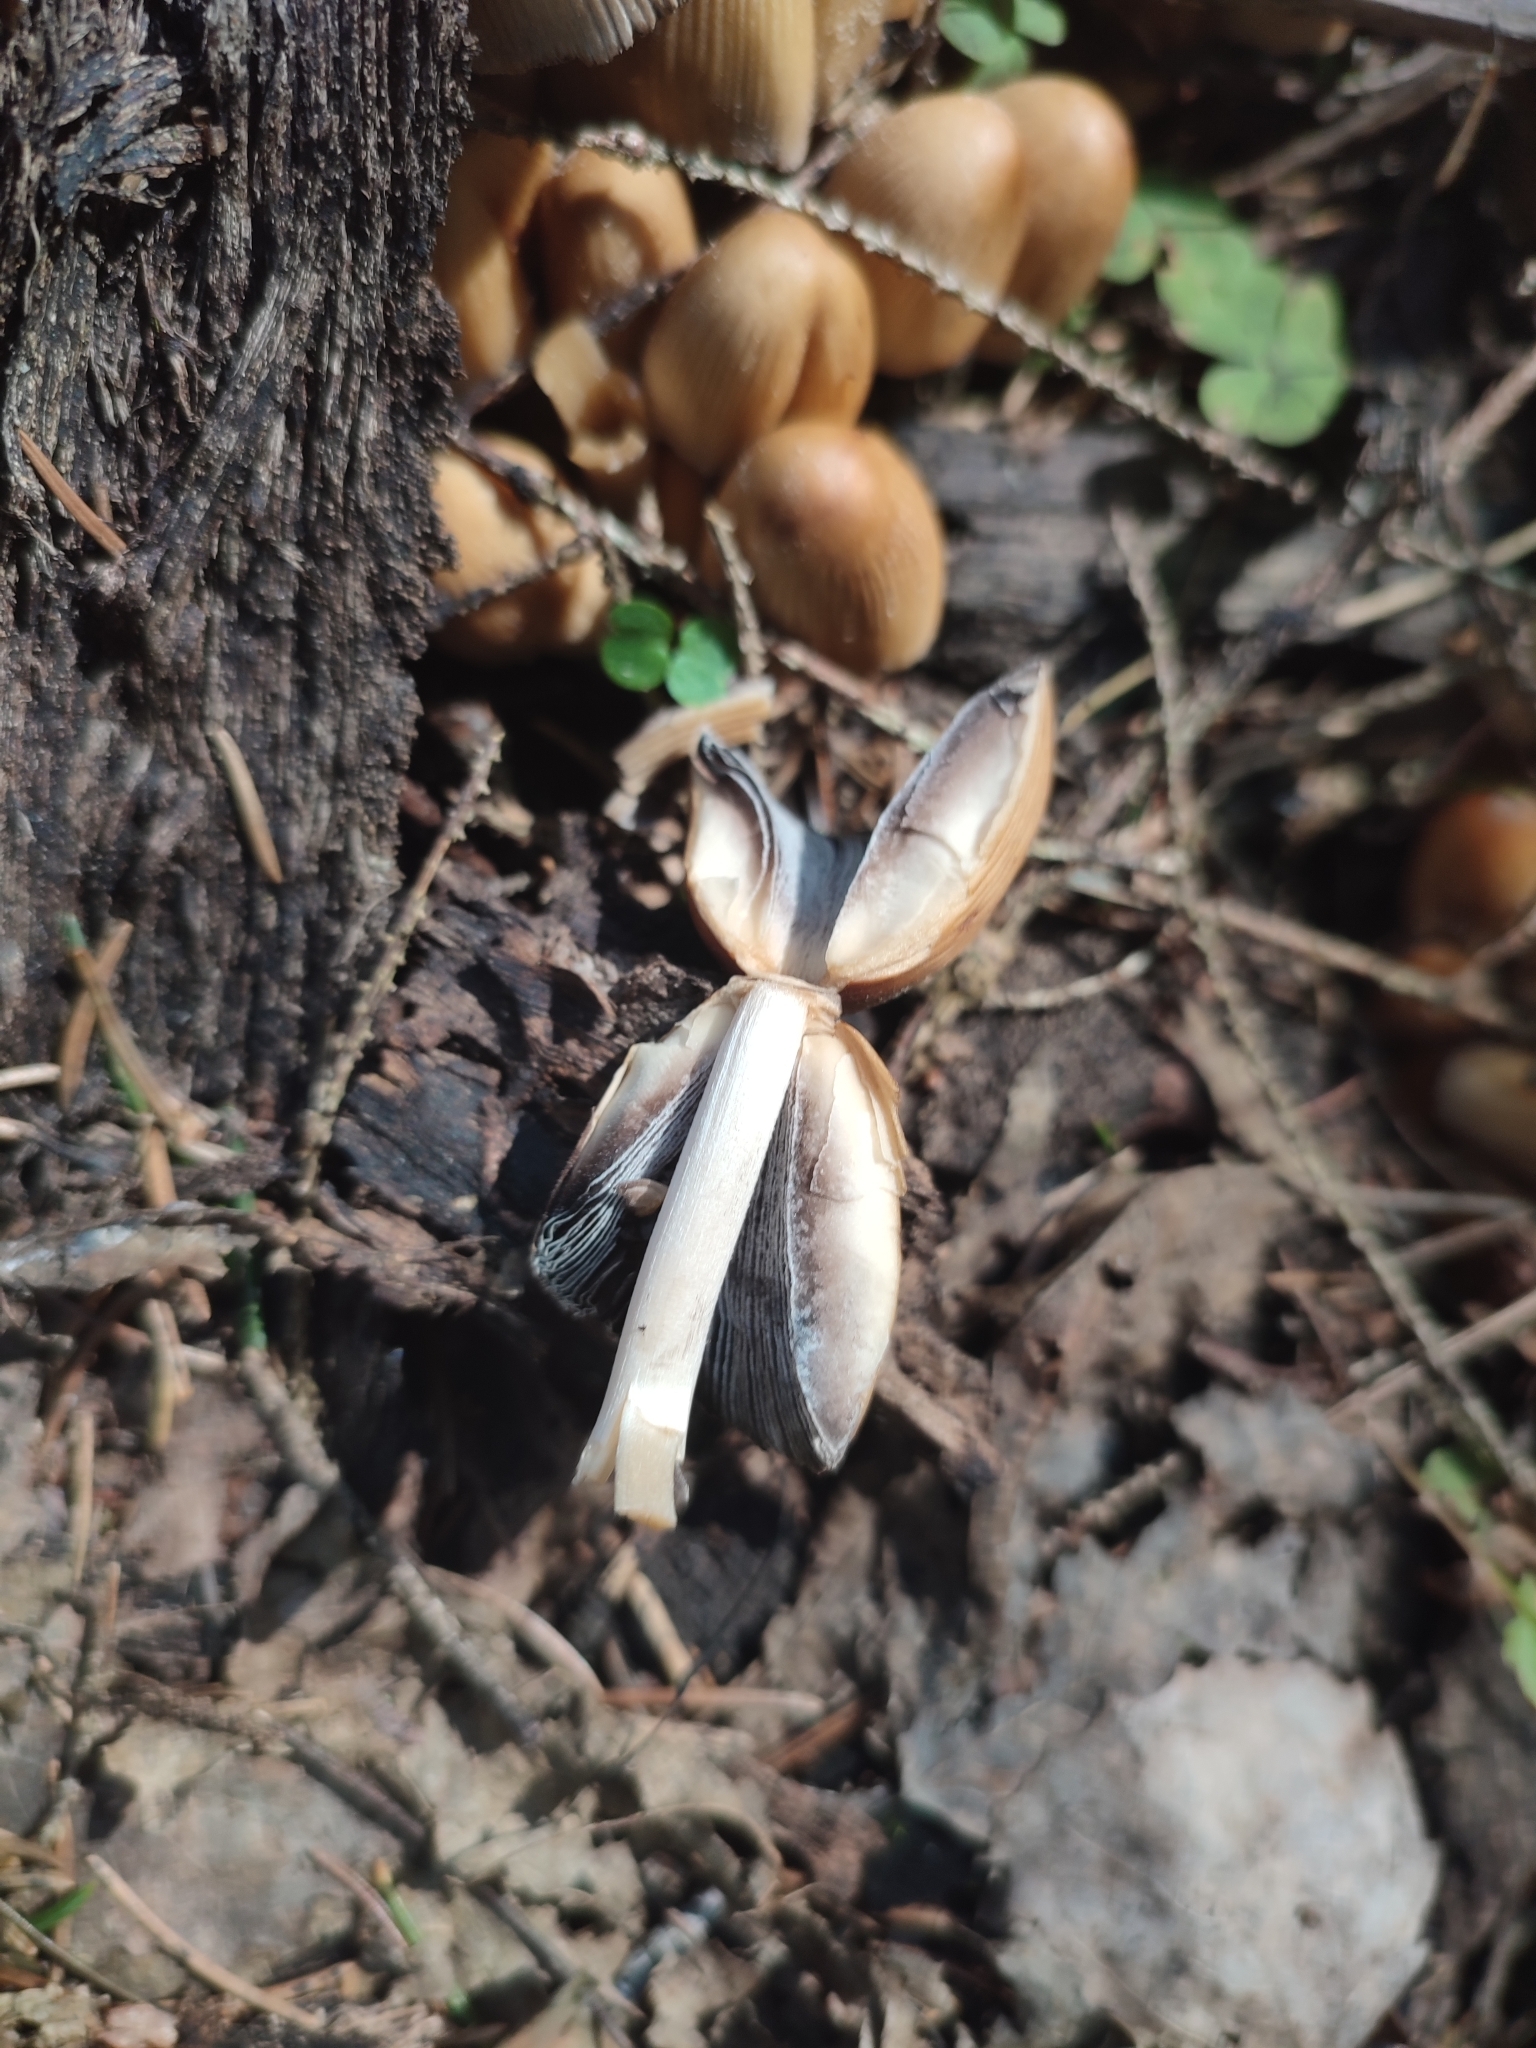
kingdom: Fungi
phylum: Basidiomycota
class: Agaricomycetes
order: Agaricales
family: Psathyrellaceae
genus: Coprinellus
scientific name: Coprinellus micaceus
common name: Glistening ink-cap
